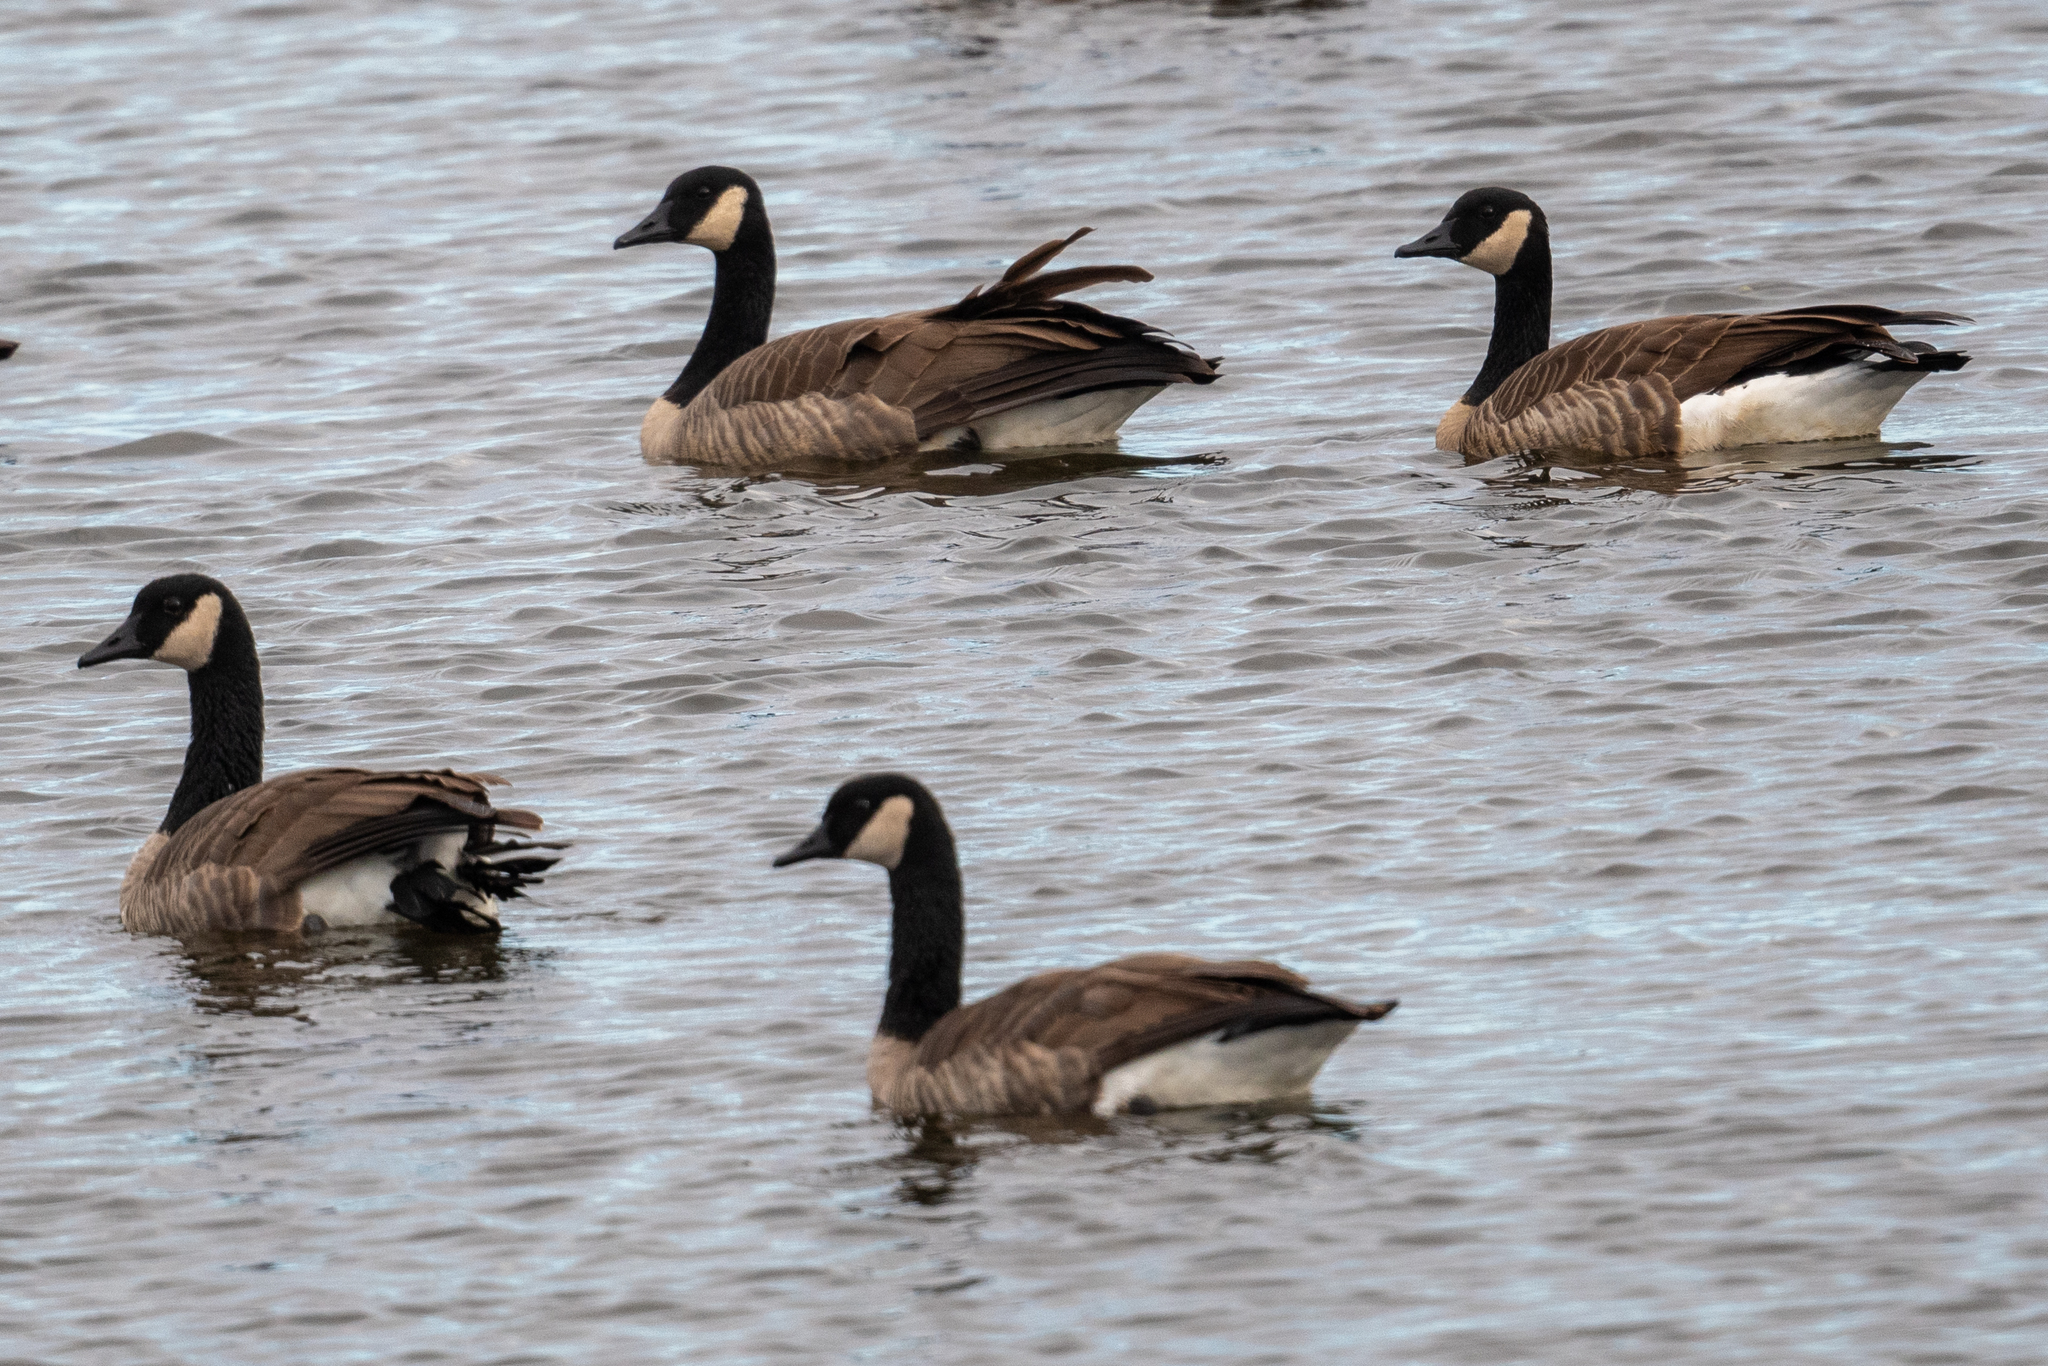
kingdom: Animalia
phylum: Chordata
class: Aves
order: Anseriformes
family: Anatidae
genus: Branta
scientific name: Branta canadensis
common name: Canada goose
